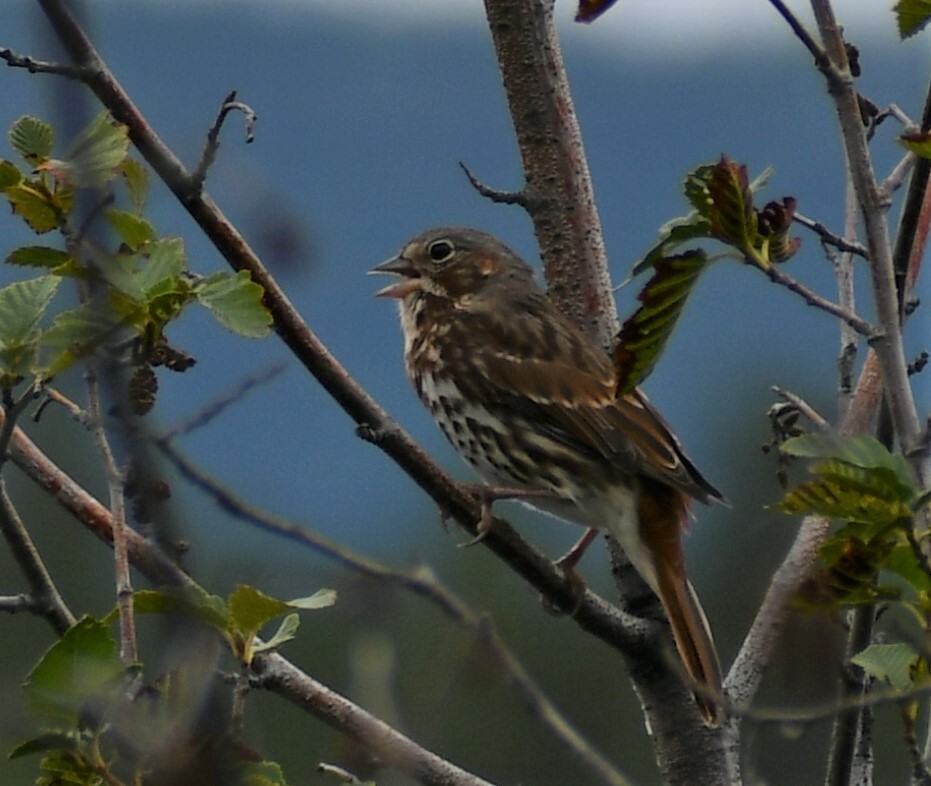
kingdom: Animalia
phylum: Chordata
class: Aves
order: Passeriformes
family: Passerellidae
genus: Passerella
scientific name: Passerella iliaca
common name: Fox sparrow
